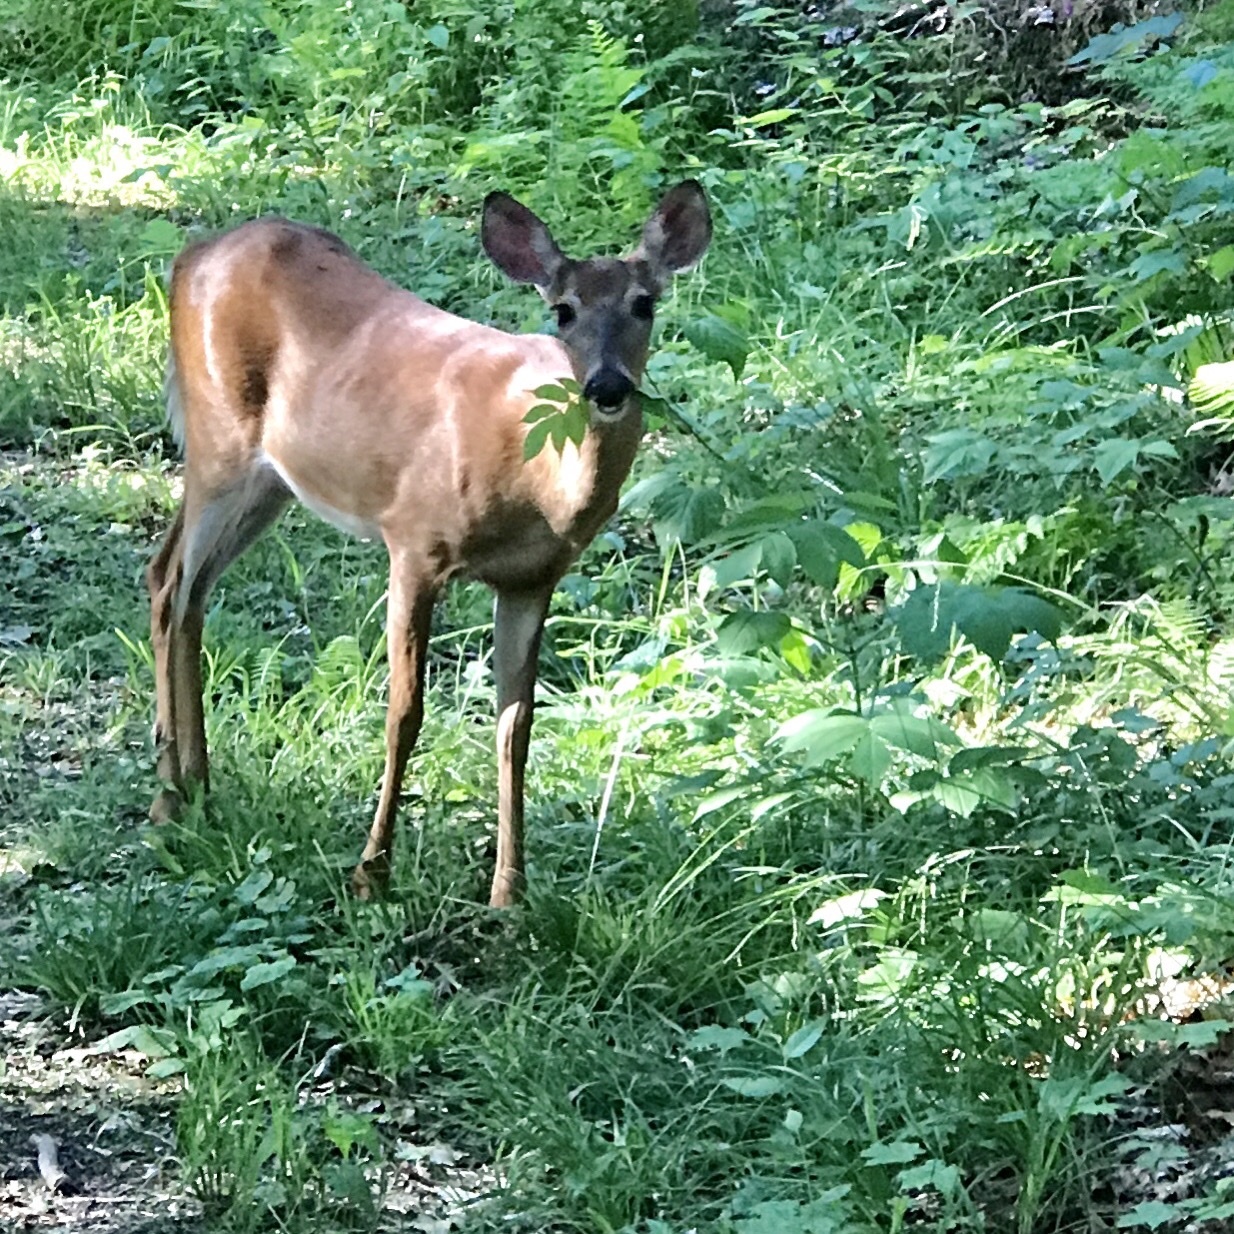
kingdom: Animalia
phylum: Chordata
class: Mammalia
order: Artiodactyla
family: Cervidae
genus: Odocoileus
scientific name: Odocoileus virginianus
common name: White-tailed deer
